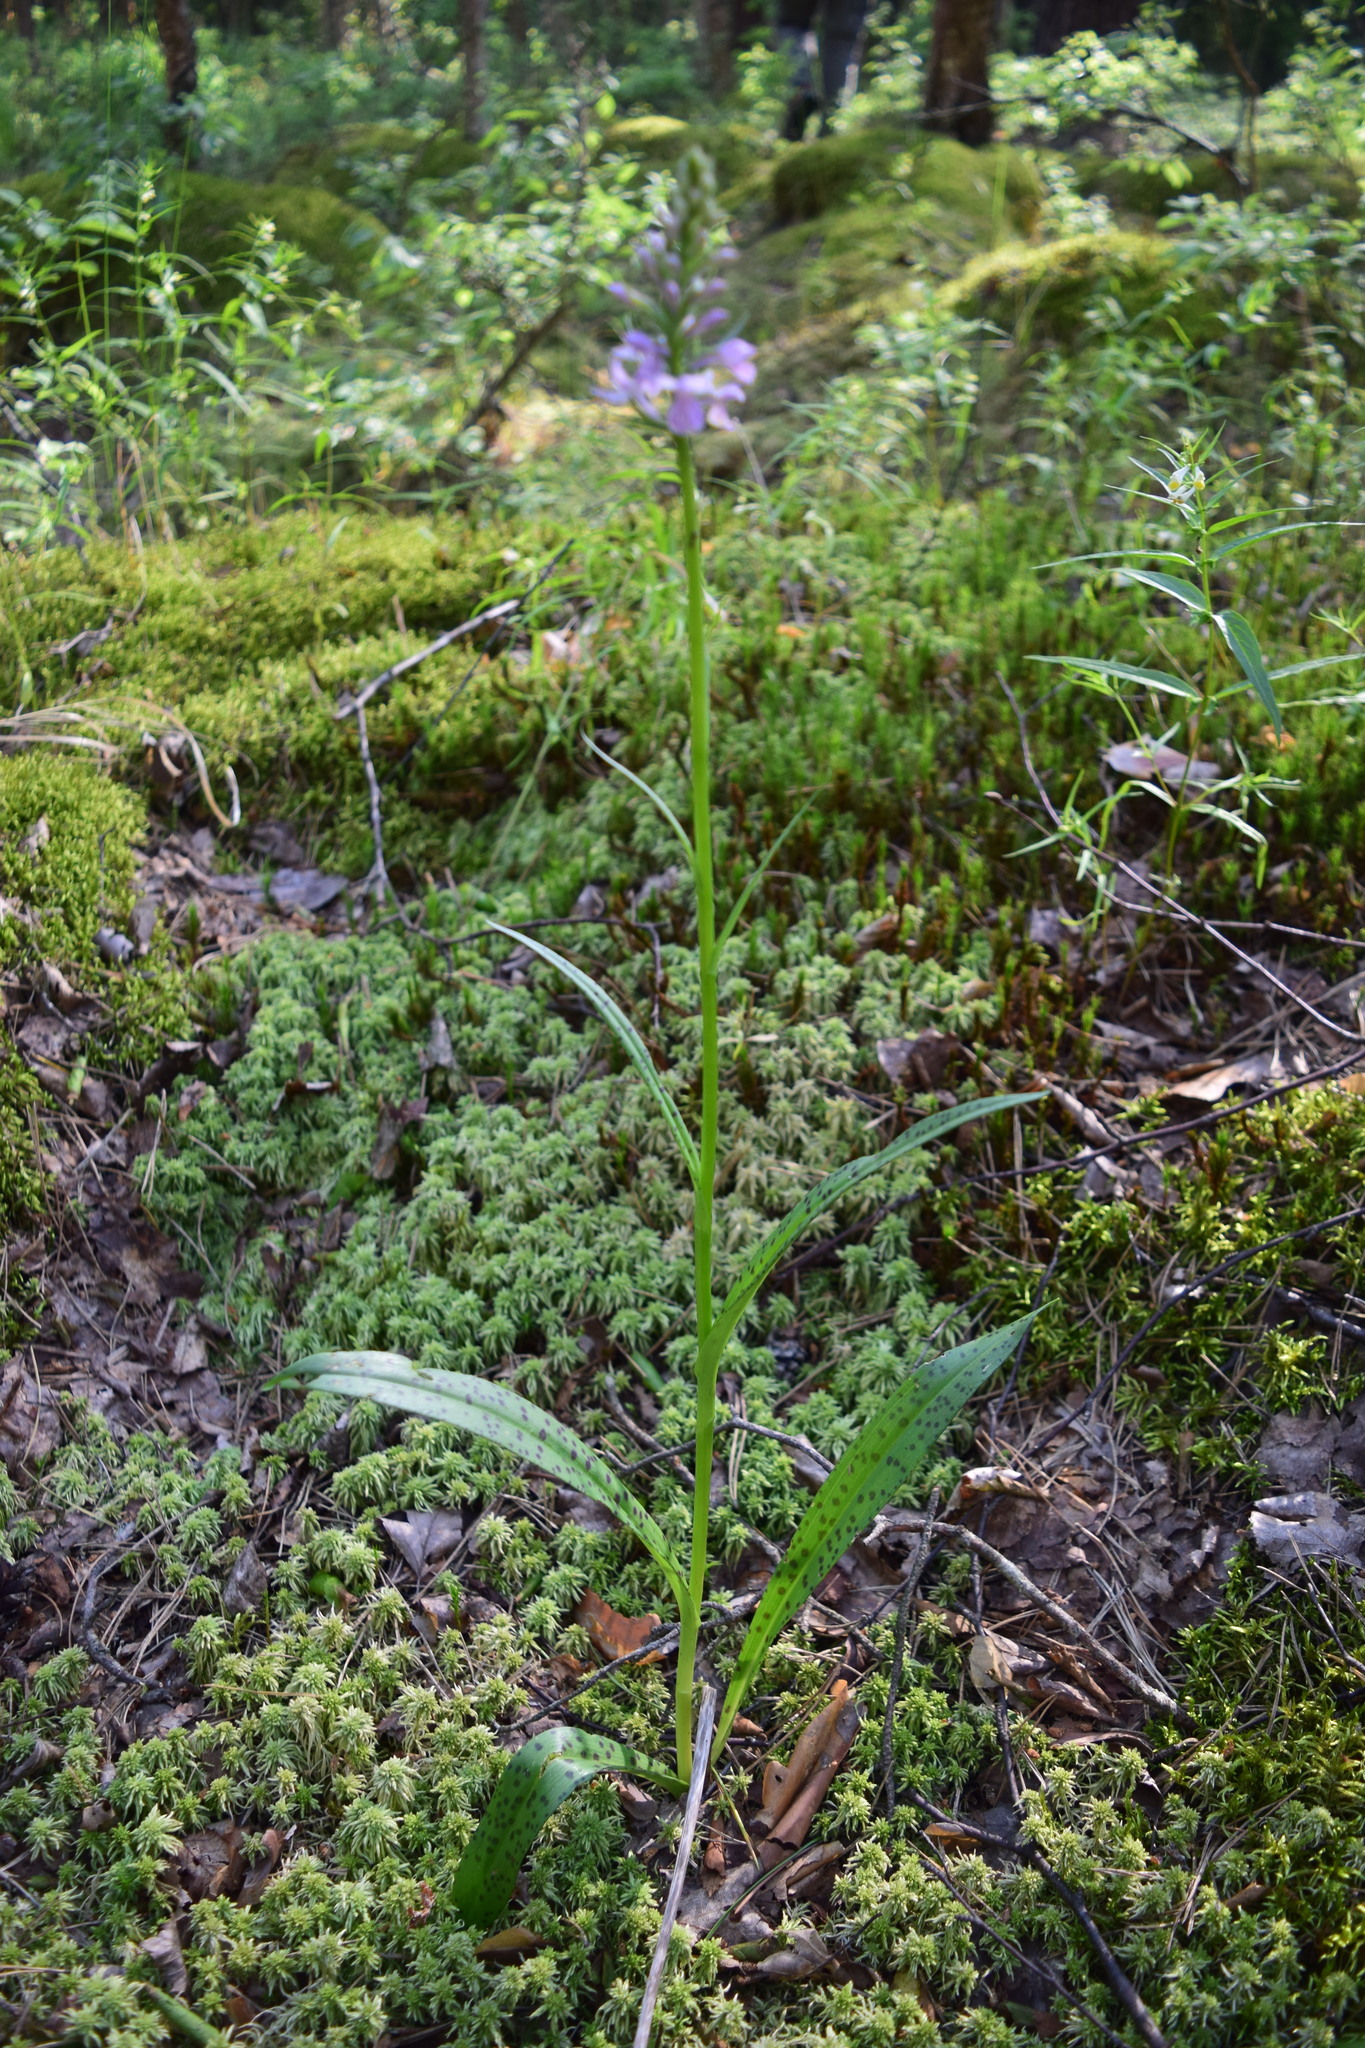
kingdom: Plantae
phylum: Tracheophyta
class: Liliopsida
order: Asparagales
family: Orchidaceae
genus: Dactylorhiza
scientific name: Dactylorhiza maculata
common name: Heath spotted-orchid
